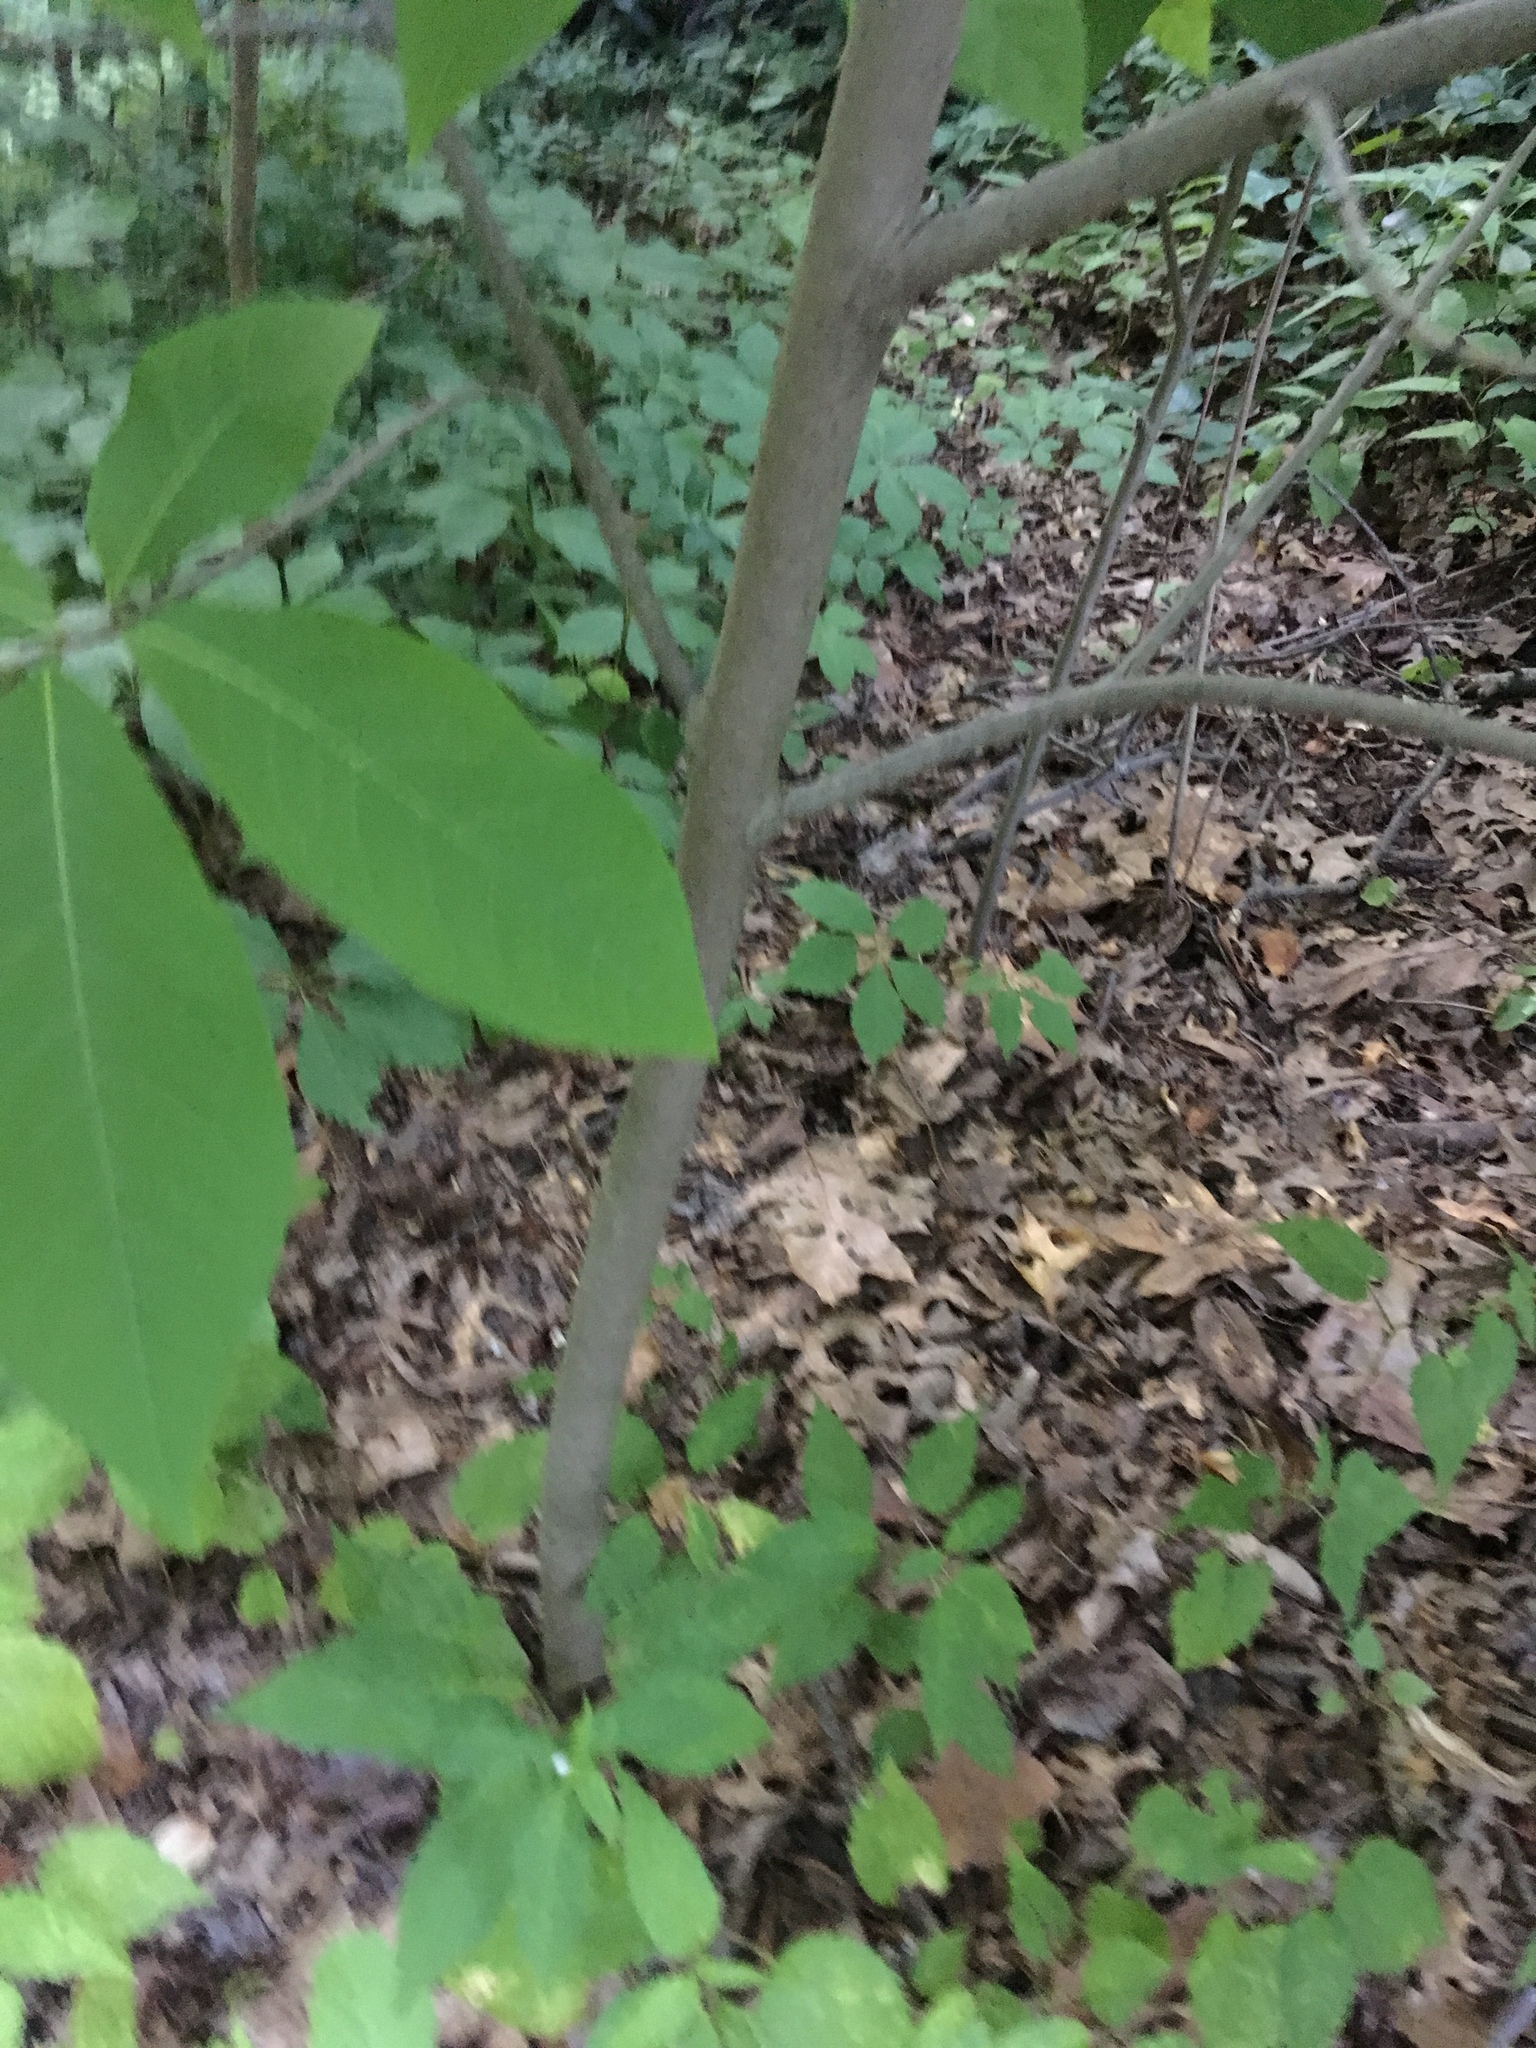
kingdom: Plantae
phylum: Tracheophyta
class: Magnoliopsida
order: Magnoliales
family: Annonaceae
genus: Asimina
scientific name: Asimina triloba
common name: Dog-banana
